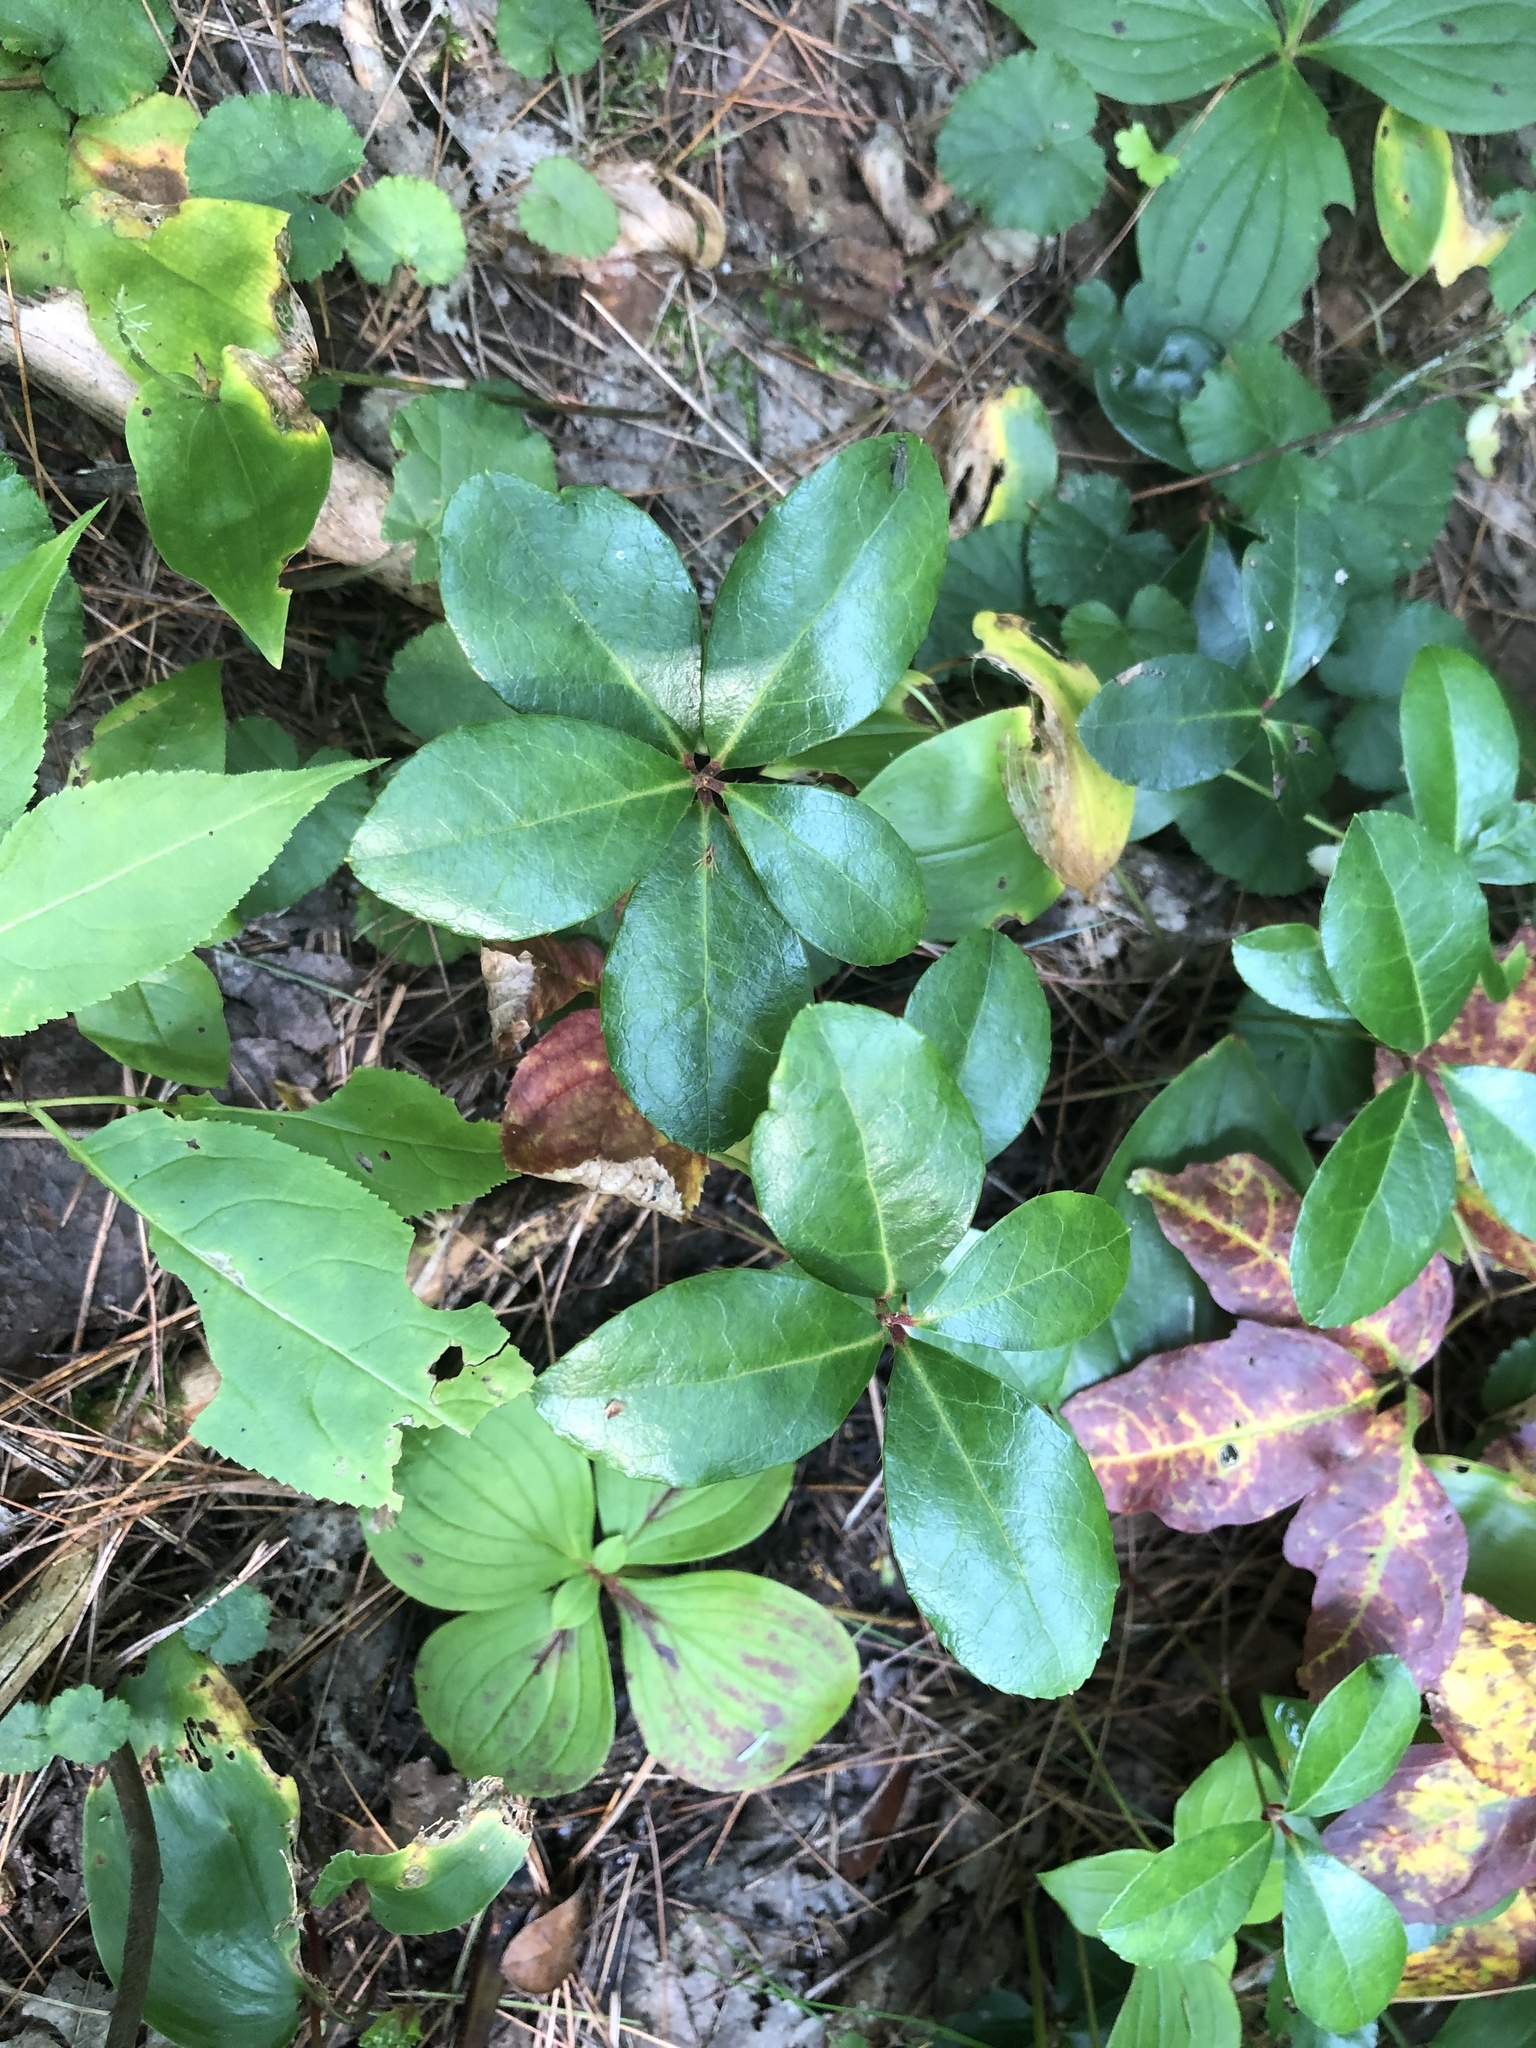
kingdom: Plantae
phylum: Tracheophyta
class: Magnoliopsida
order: Ericales
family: Ericaceae
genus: Gaultheria
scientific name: Gaultheria procumbens
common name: Checkerberry
